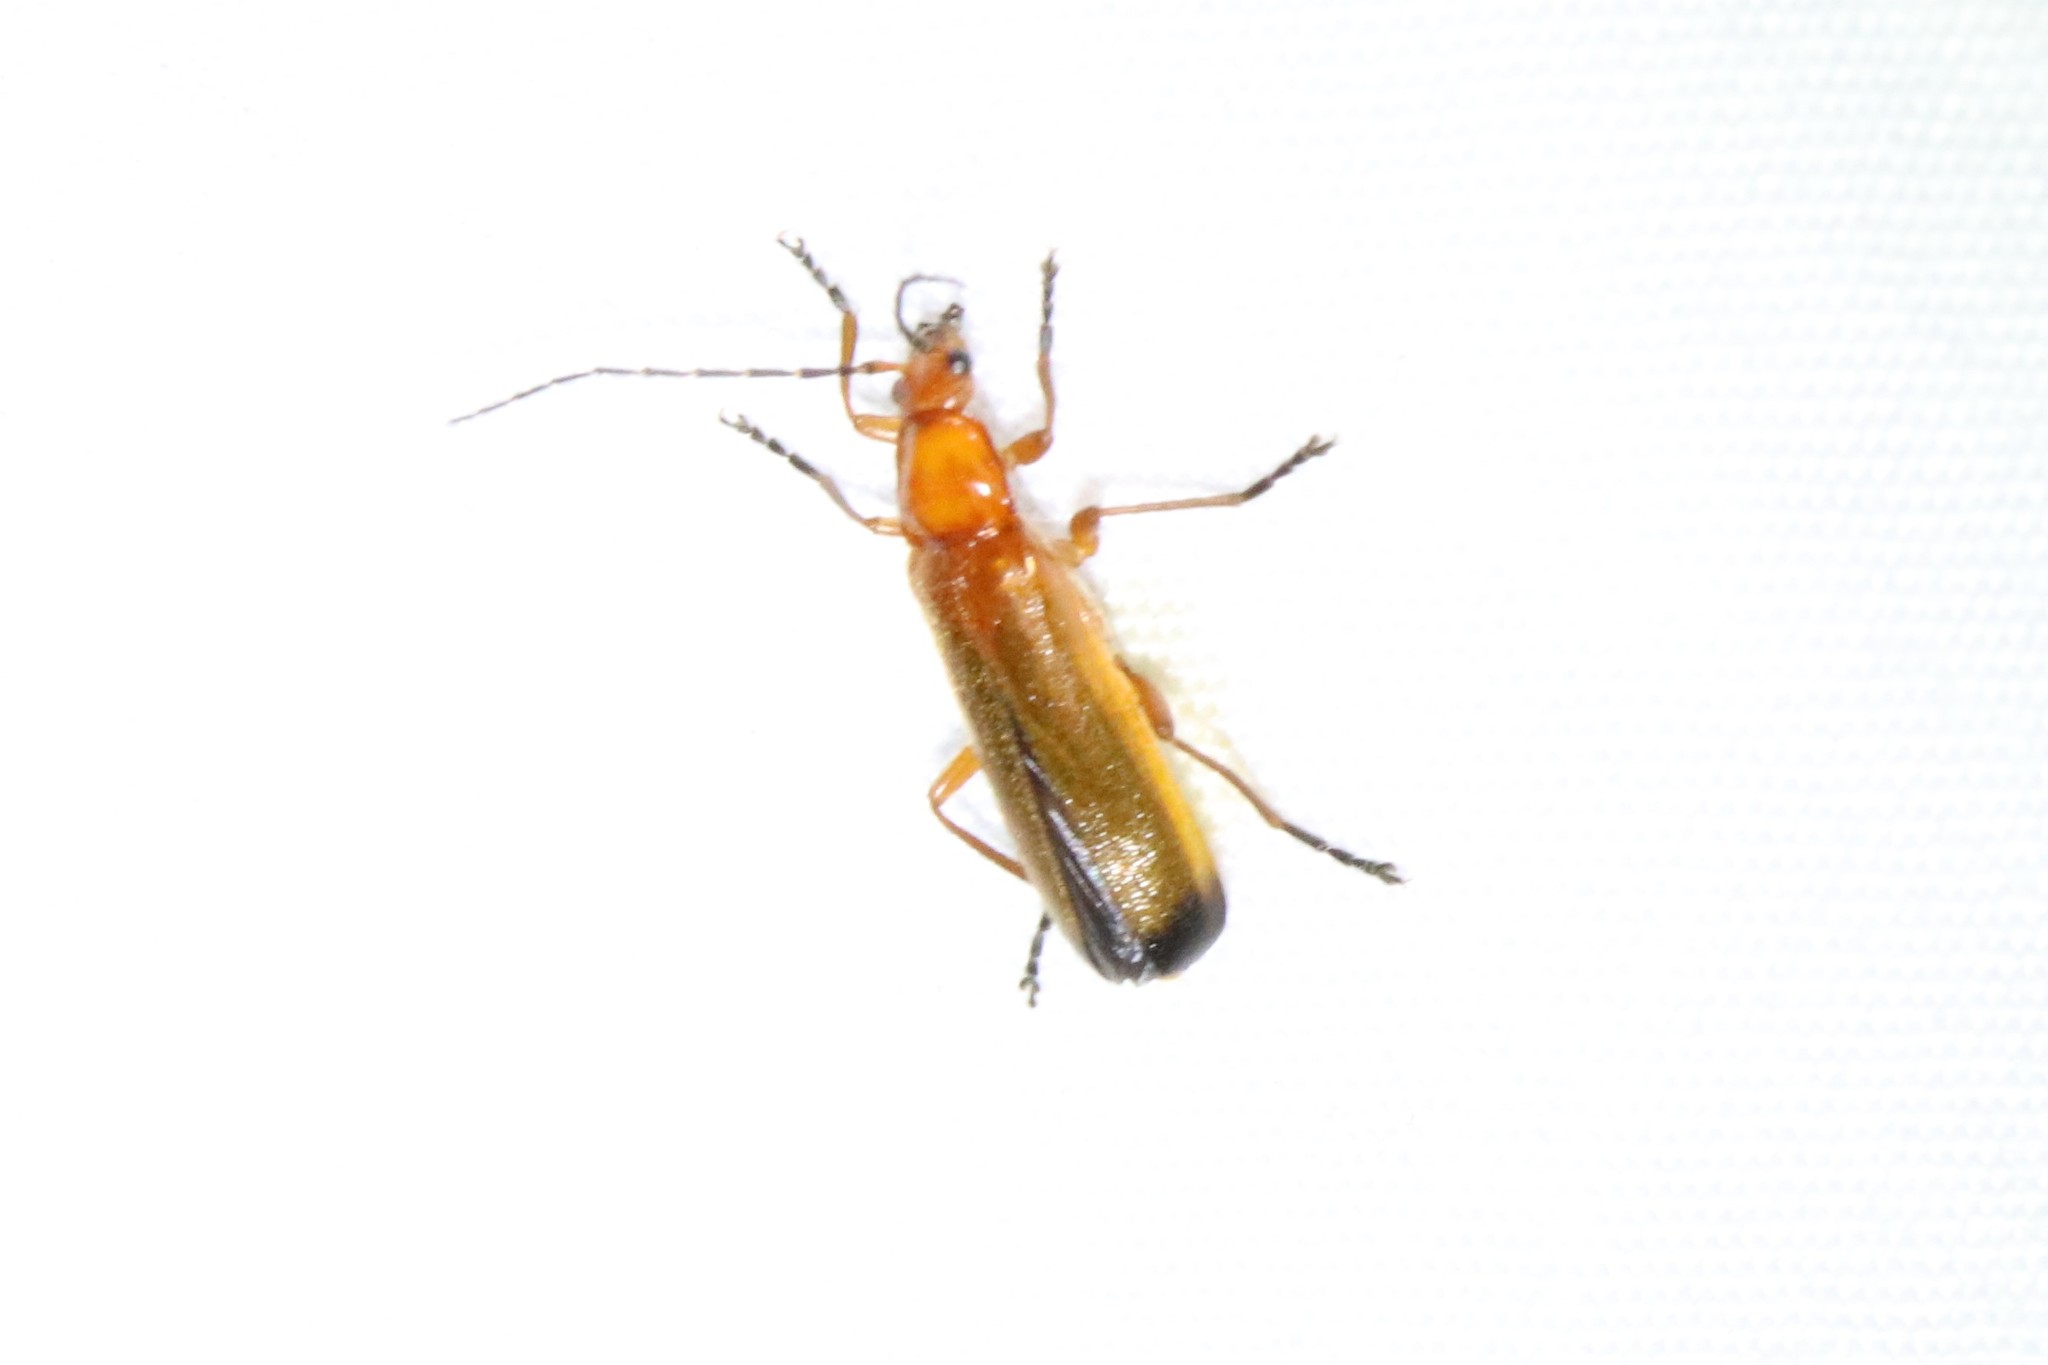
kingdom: Animalia
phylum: Arthropoda
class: Insecta
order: Coleoptera
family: Cantharidae
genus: Rhagonycha
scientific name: Rhagonycha fulva
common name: Common red soldier beetle
